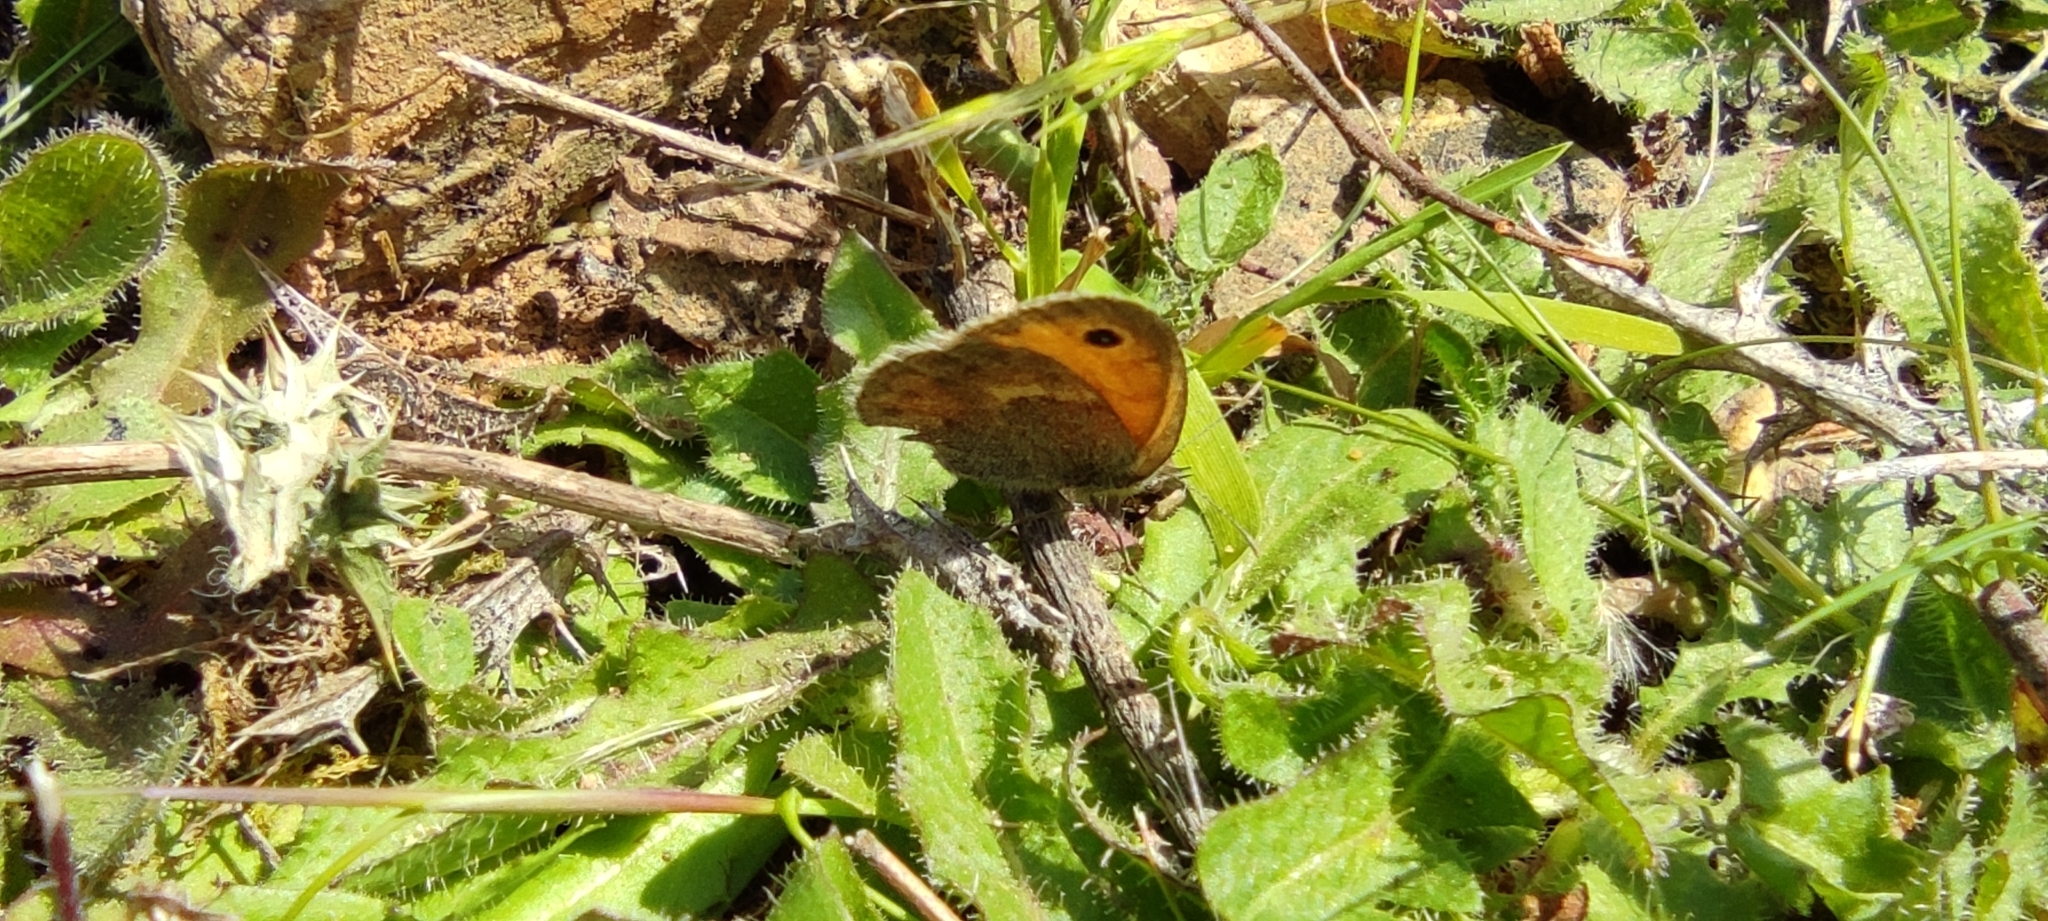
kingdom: Animalia
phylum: Arthropoda
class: Insecta
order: Lepidoptera
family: Nymphalidae
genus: Coenonympha
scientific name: Coenonympha pamphilus
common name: Small heath
